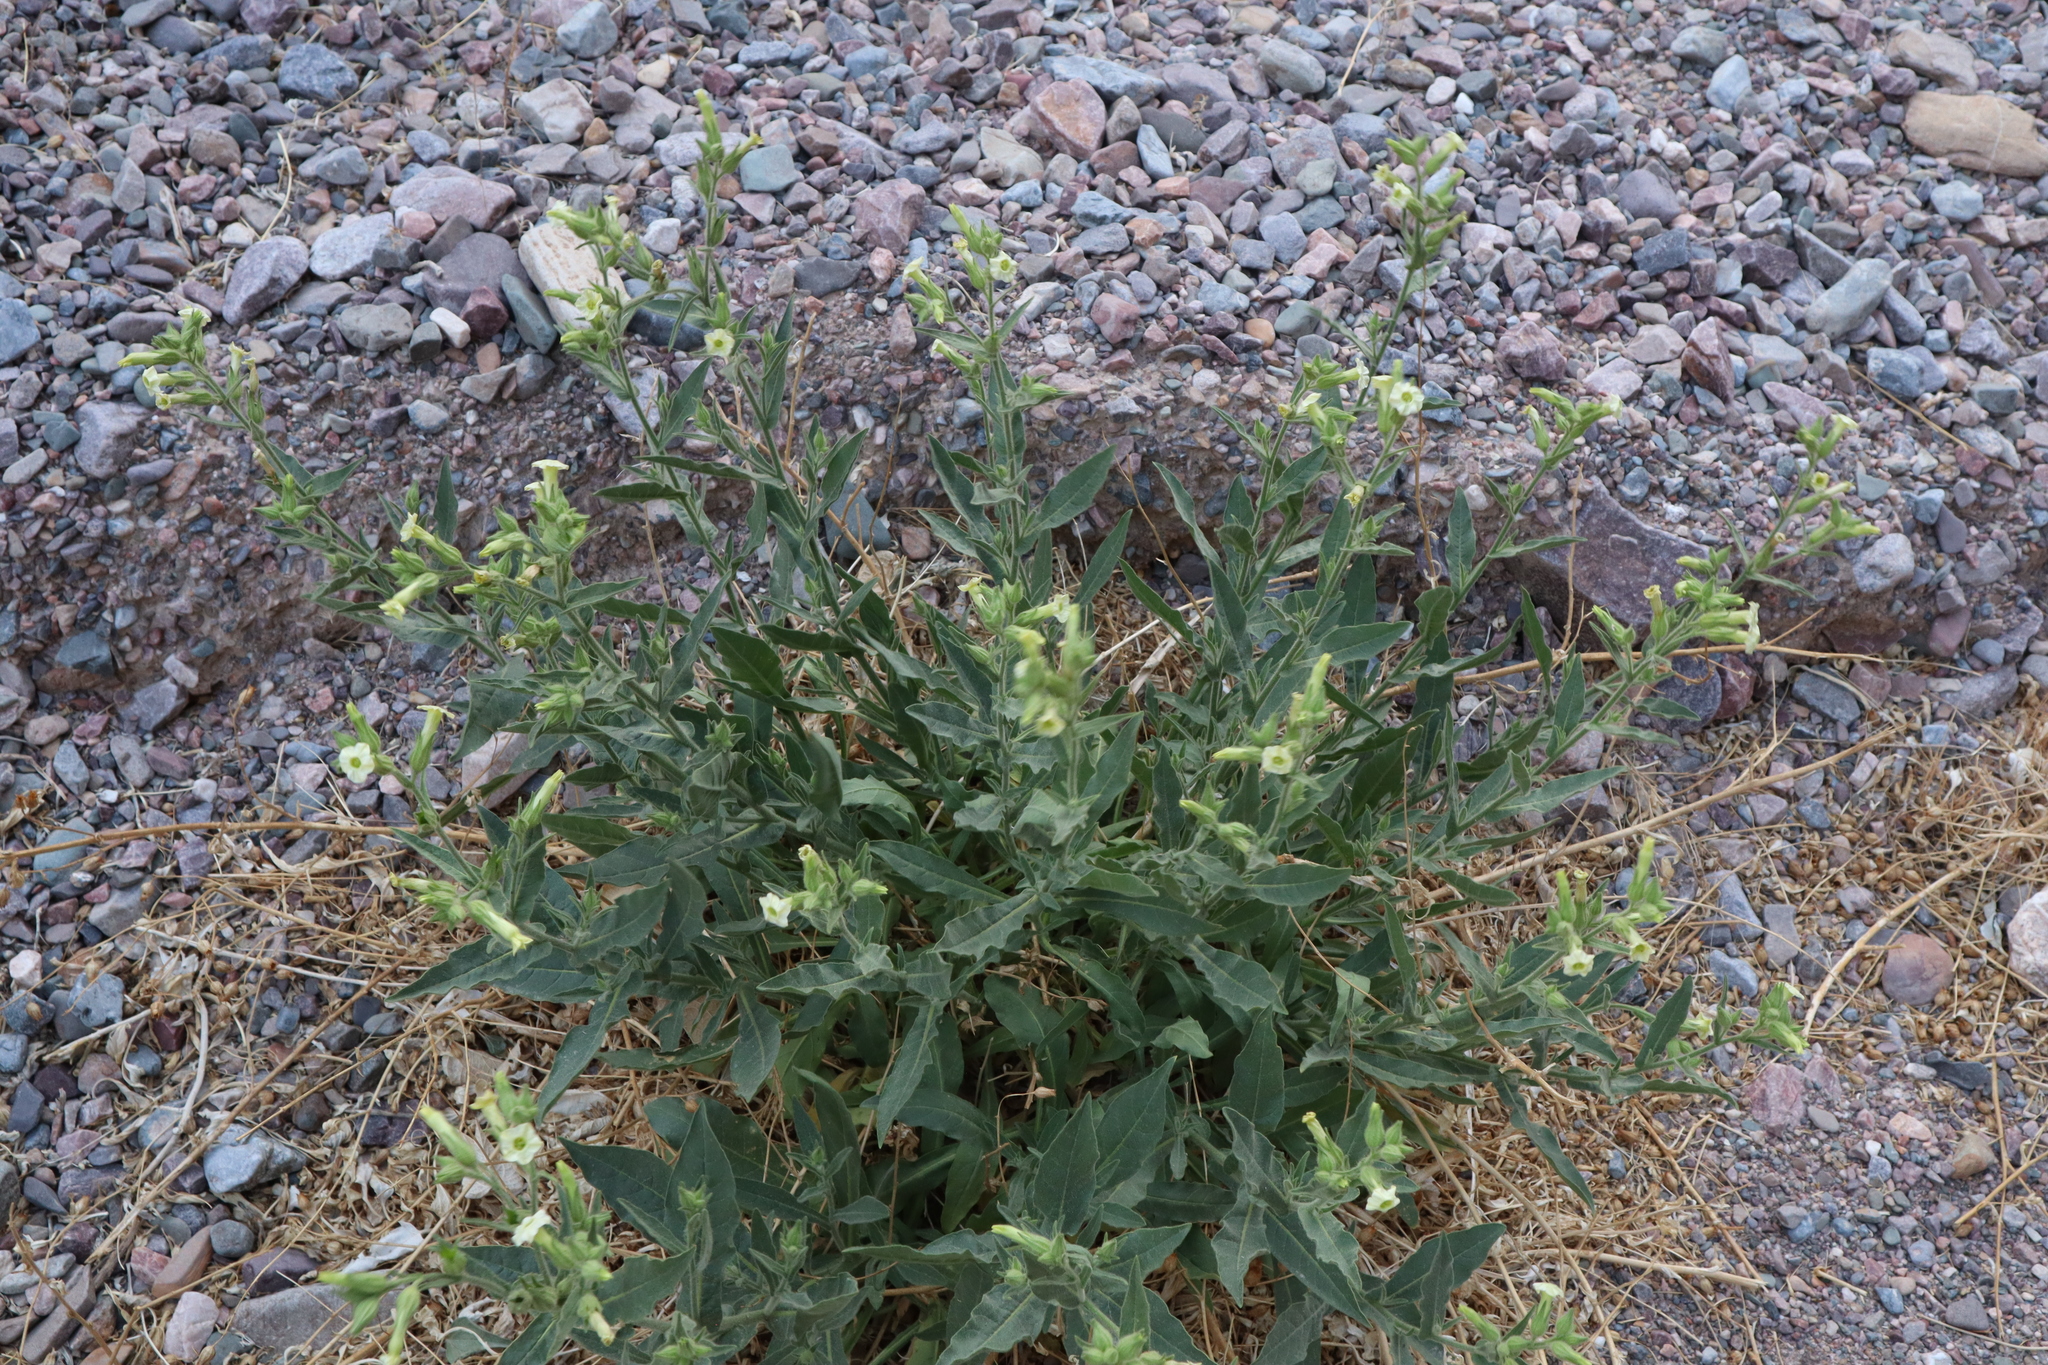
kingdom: Plantae
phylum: Tracheophyta
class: Magnoliopsida
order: Solanales
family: Solanaceae
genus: Nicotiana
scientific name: Nicotiana obtusifolia
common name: Desert tobacco
